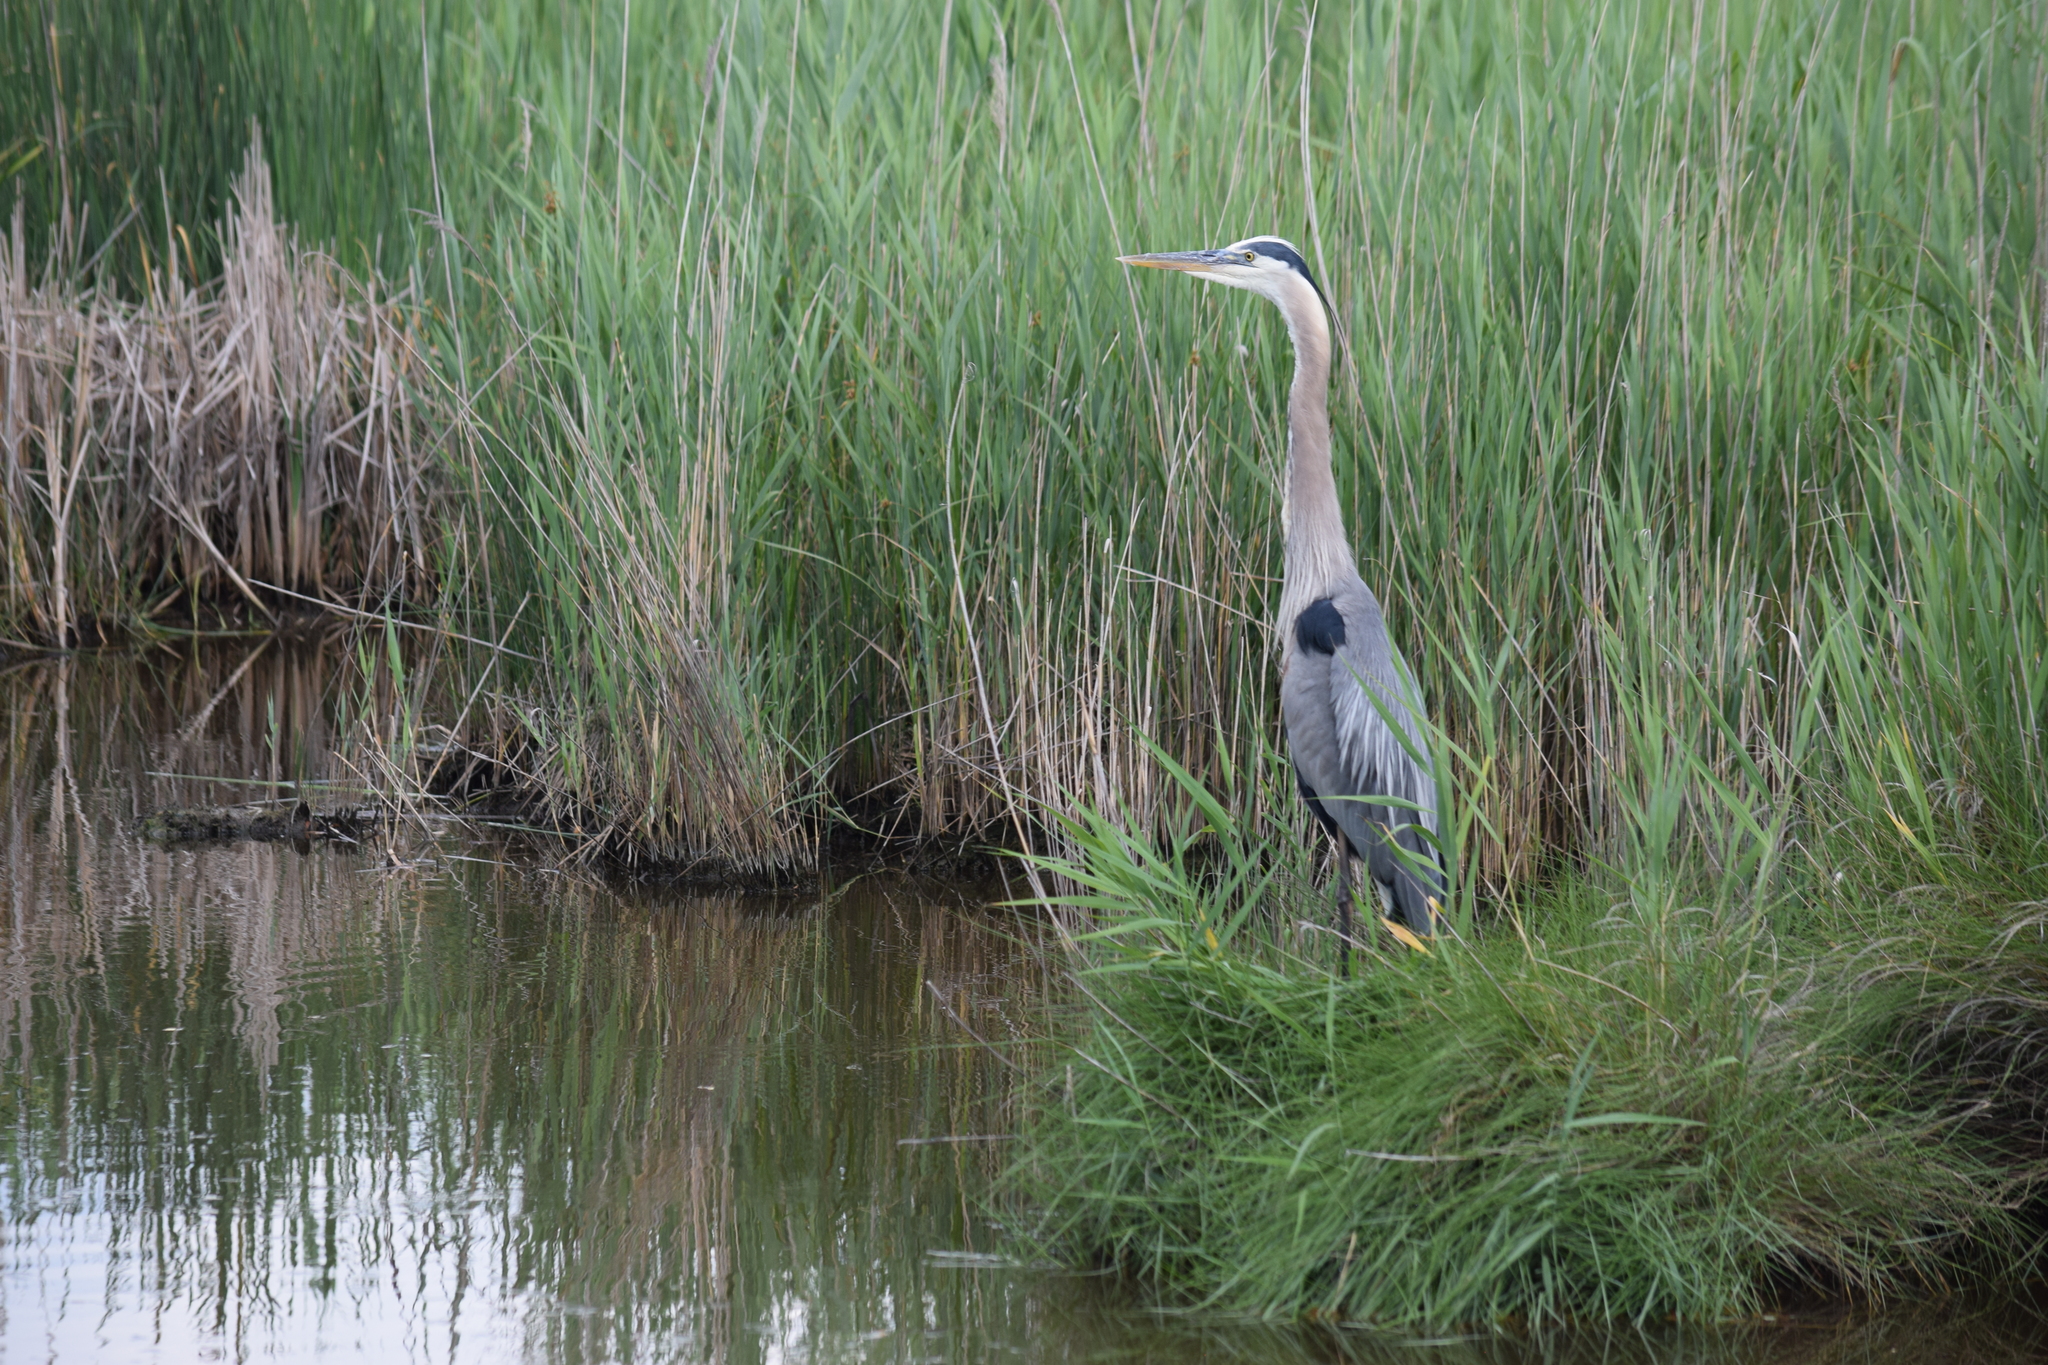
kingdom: Animalia
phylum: Chordata
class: Aves
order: Pelecaniformes
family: Ardeidae
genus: Ardea
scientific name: Ardea herodias
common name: Great blue heron
